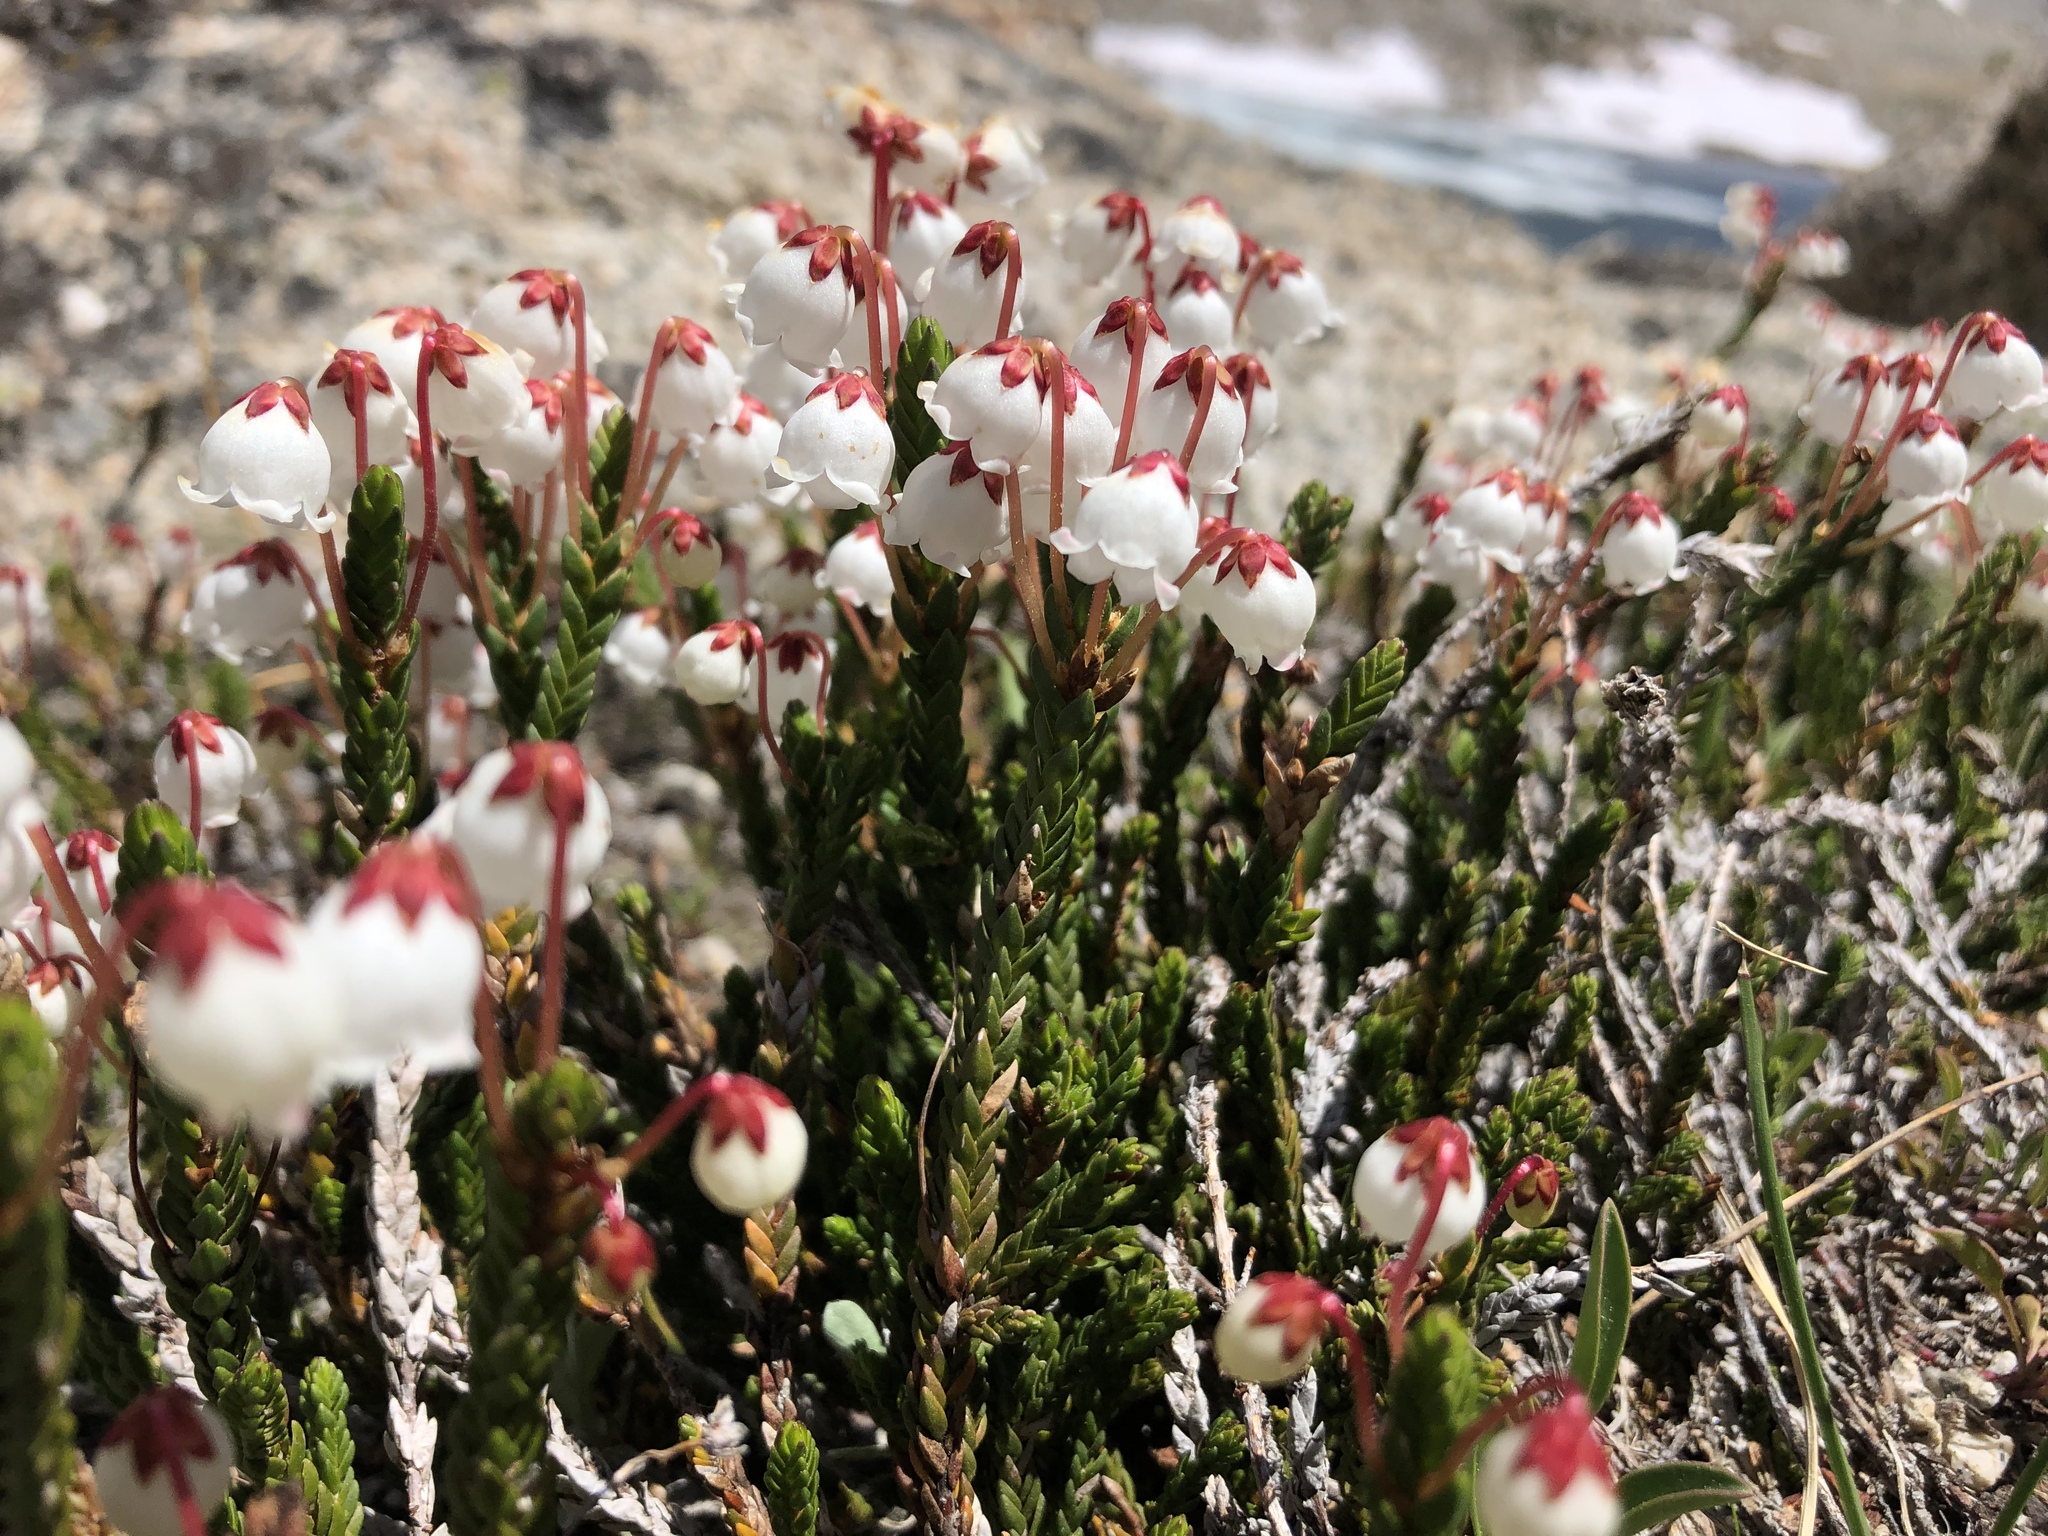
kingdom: Plantae
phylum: Tracheophyta
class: Magnoliopsida
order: Ericales
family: Ericaceae
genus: Cassiope
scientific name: Cassiope mertensiana
